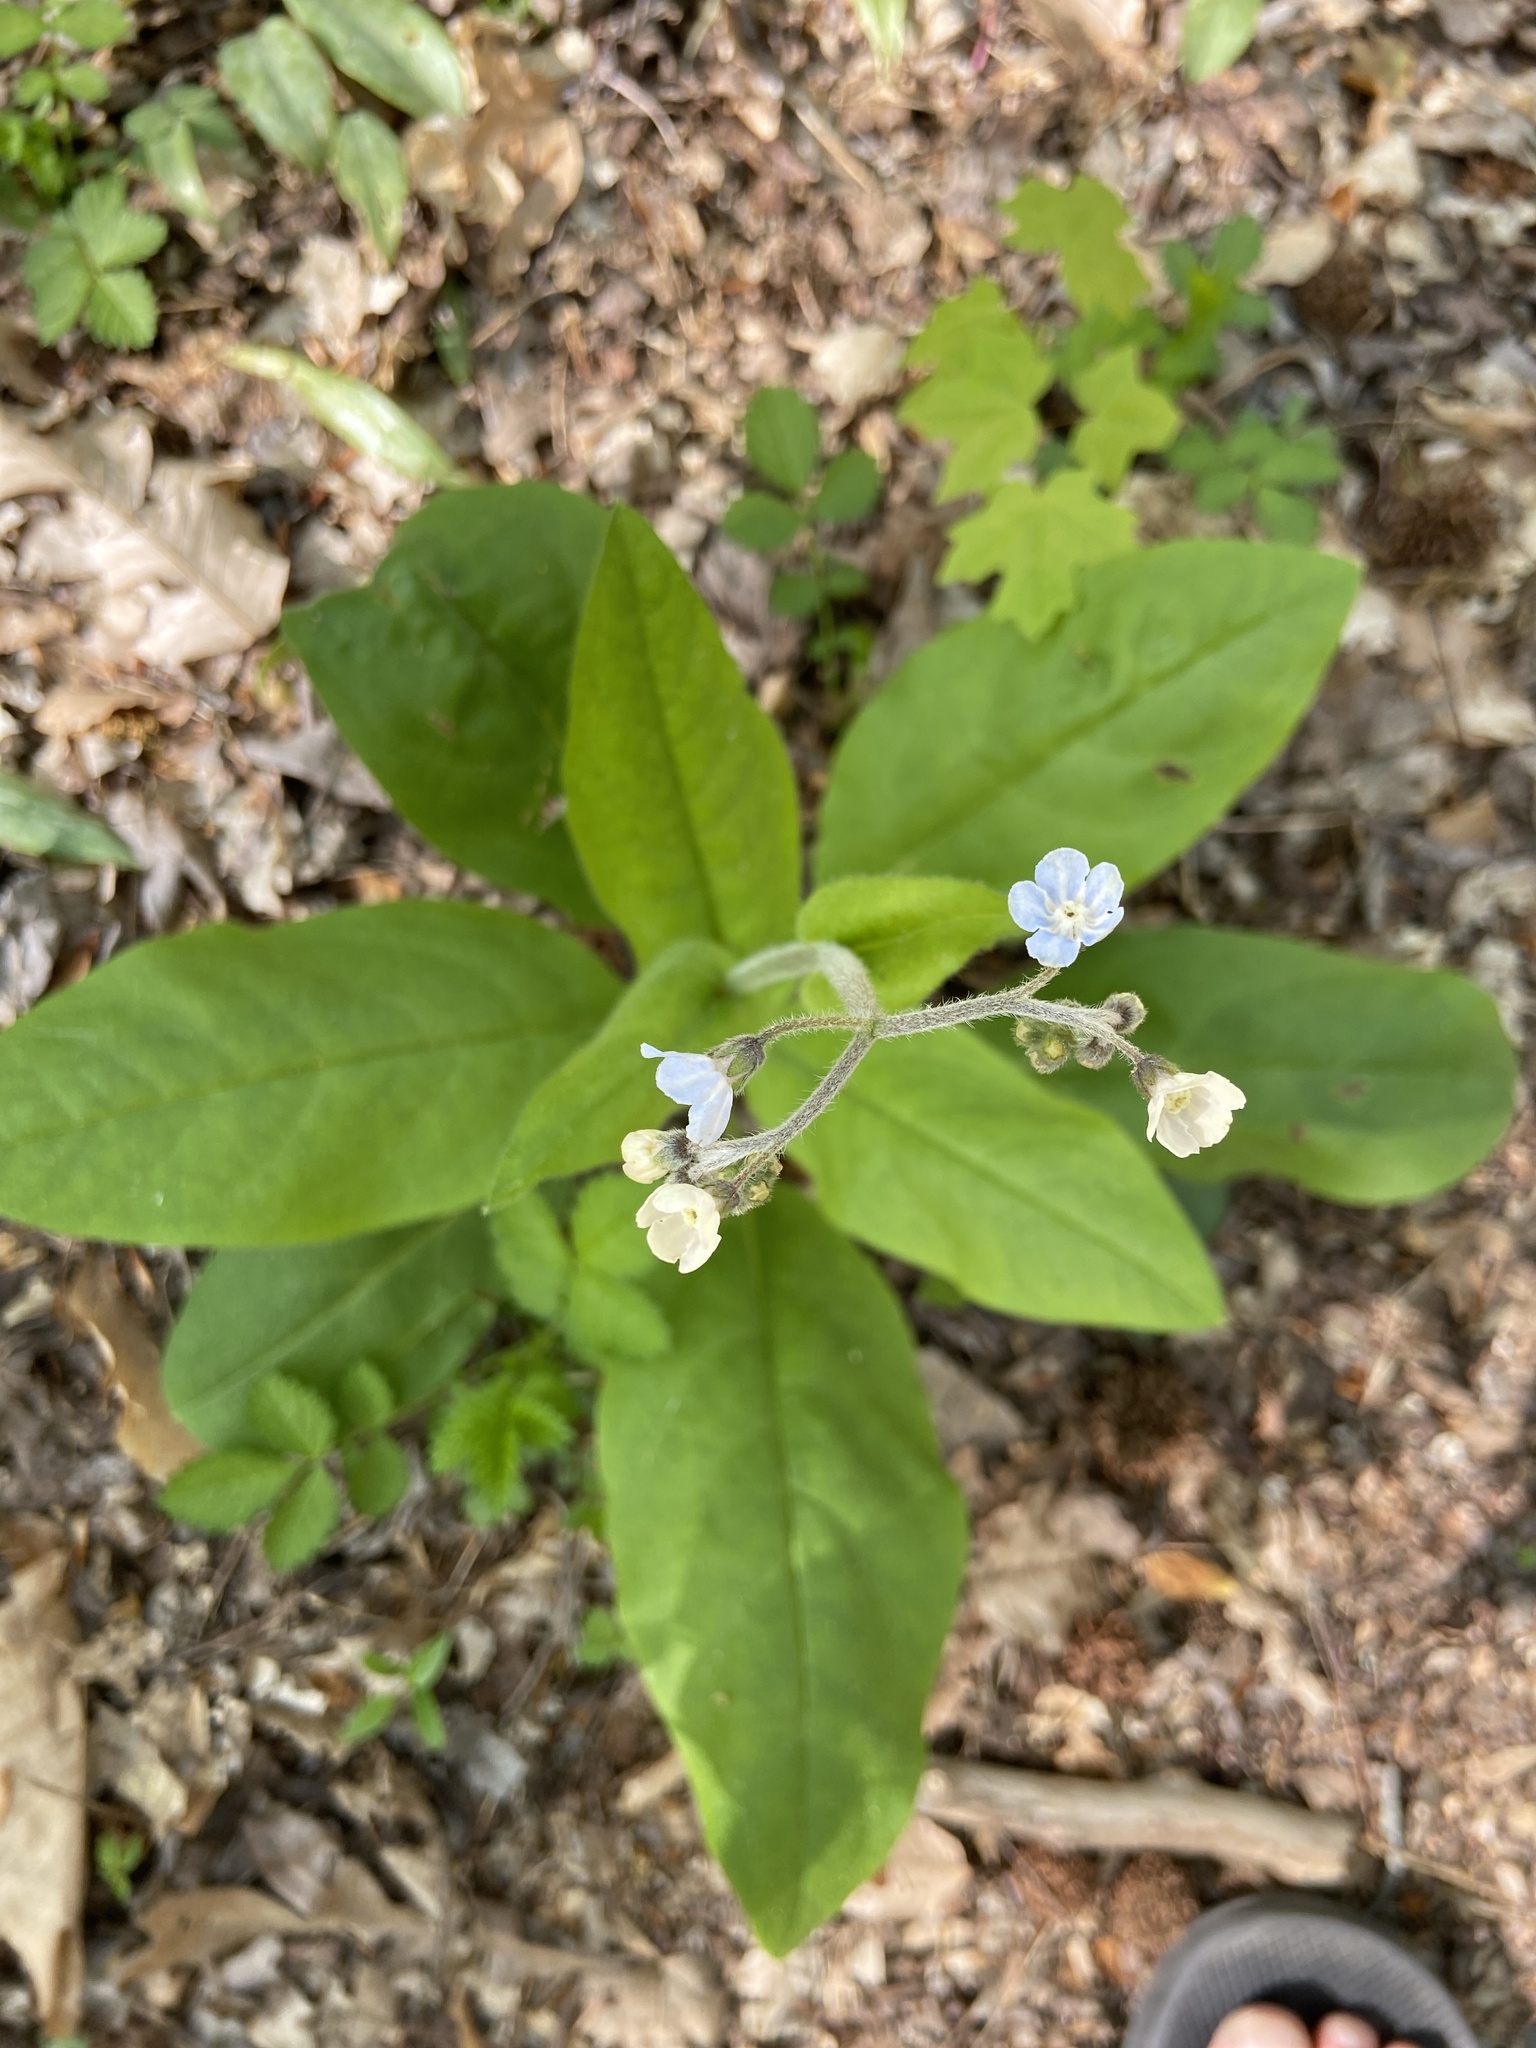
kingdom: Plantae
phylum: Tracheophyta
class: Magnoliopsida
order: Boraginales
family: Boraginaceae
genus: Andersonglossum
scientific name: Andersonglossum virginianum
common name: Wild comfrey
